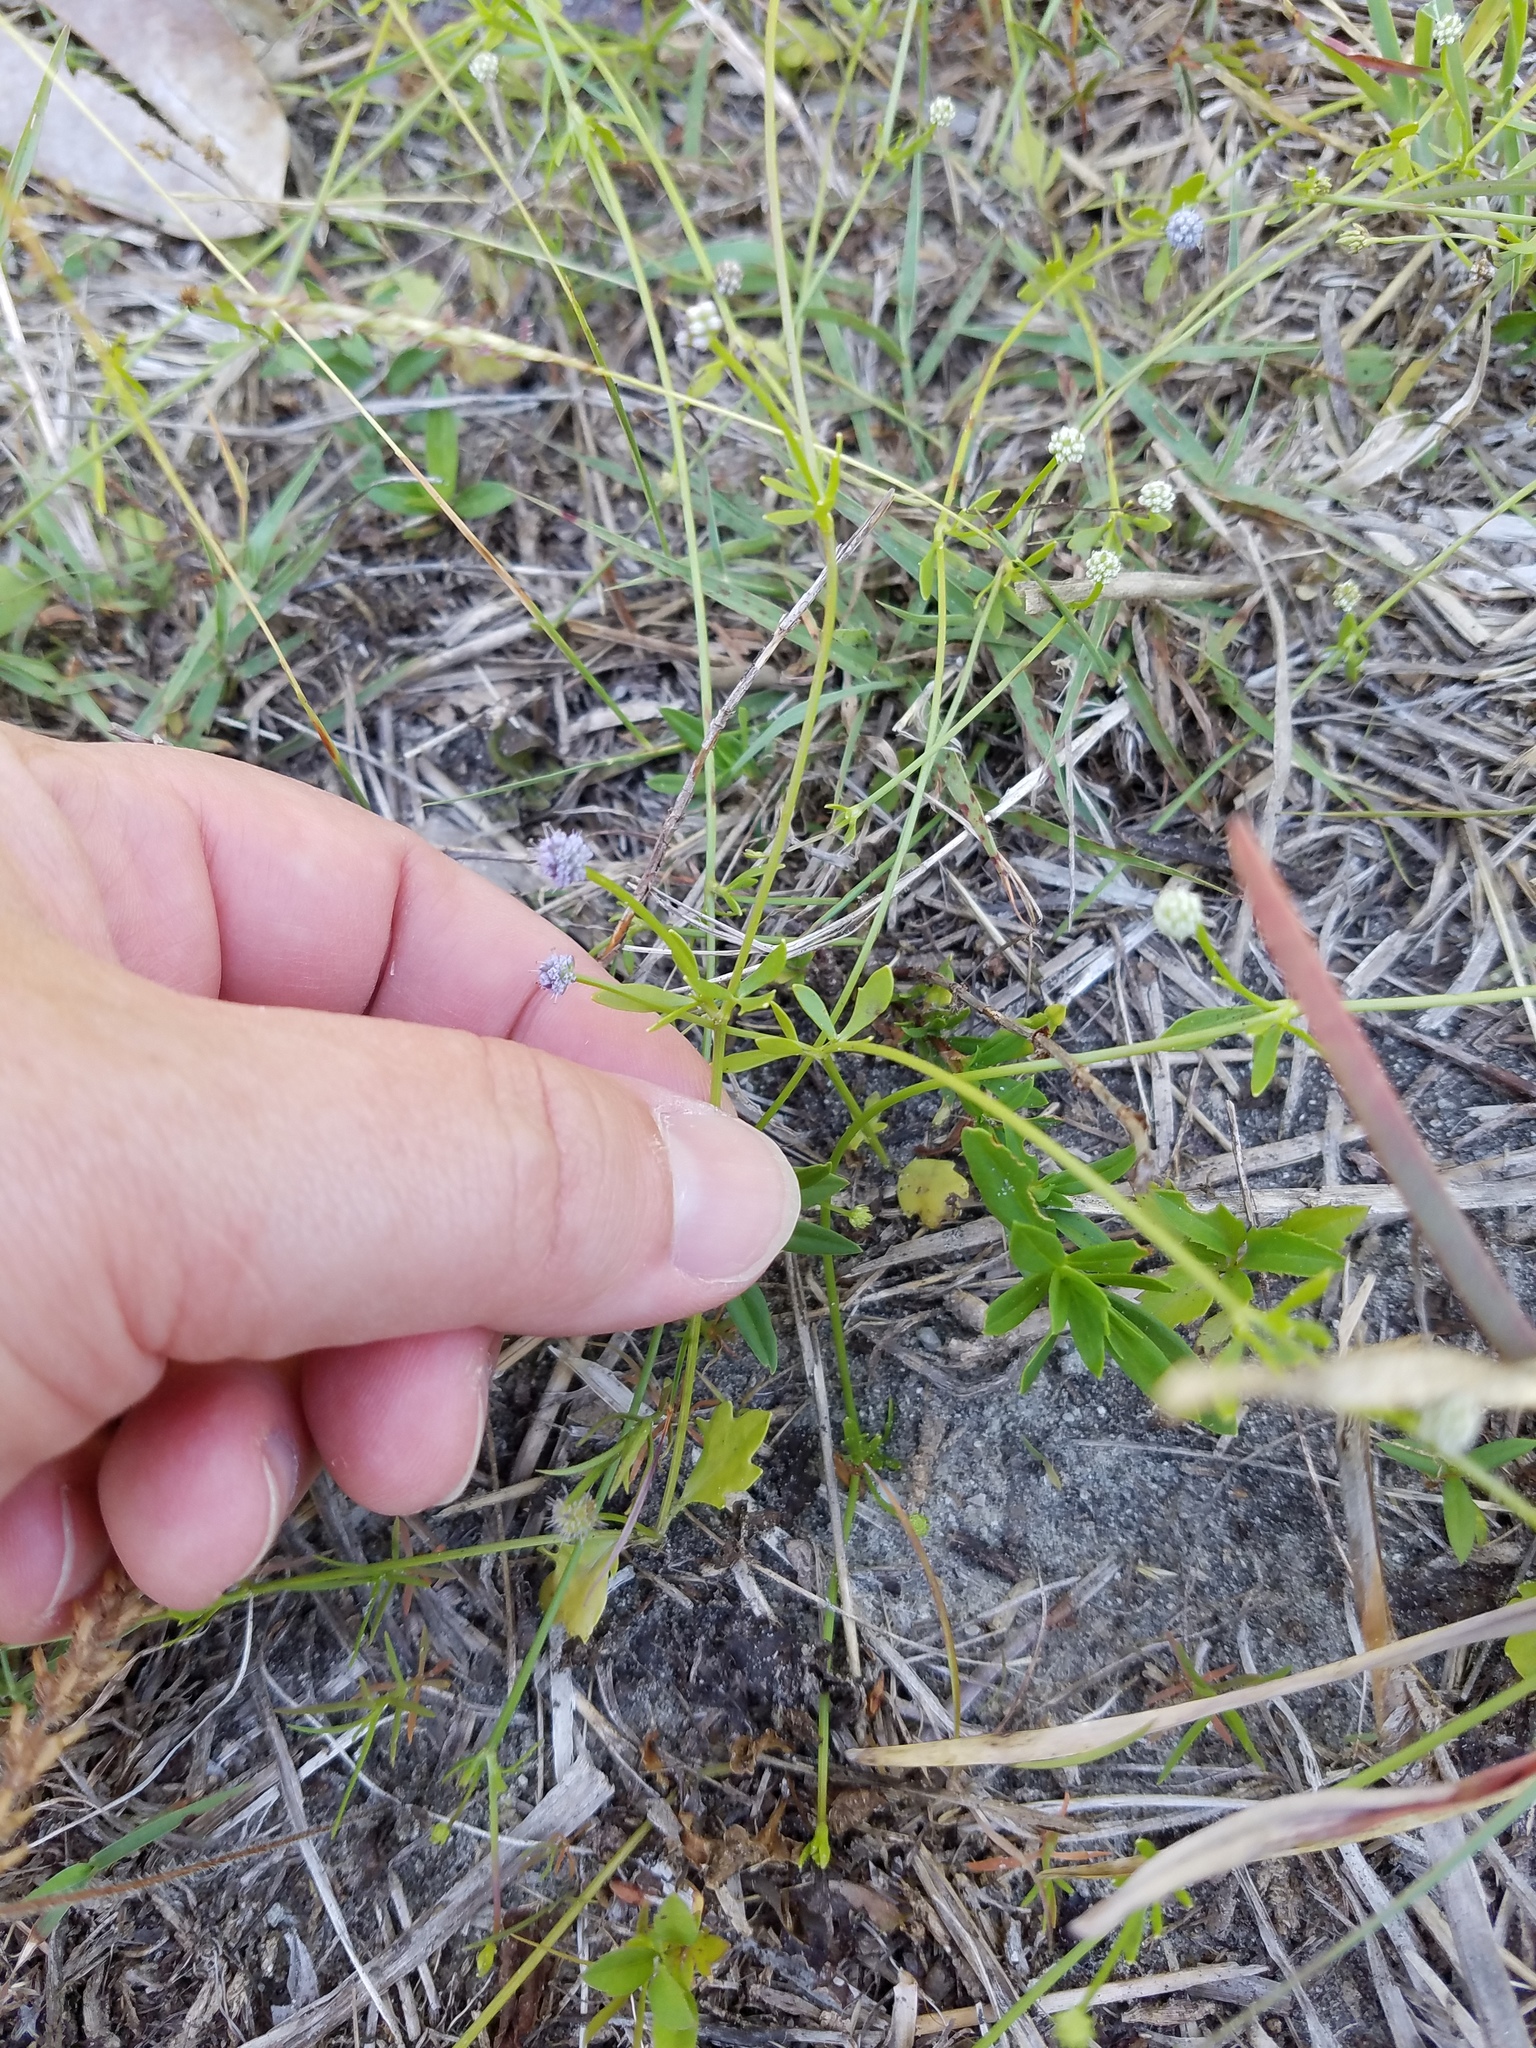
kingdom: Plantae
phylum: Tracheophyta
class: Magnoliopsida
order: Apiales
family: Apiaceae
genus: Eryngium
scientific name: Eryngium baldwinii
